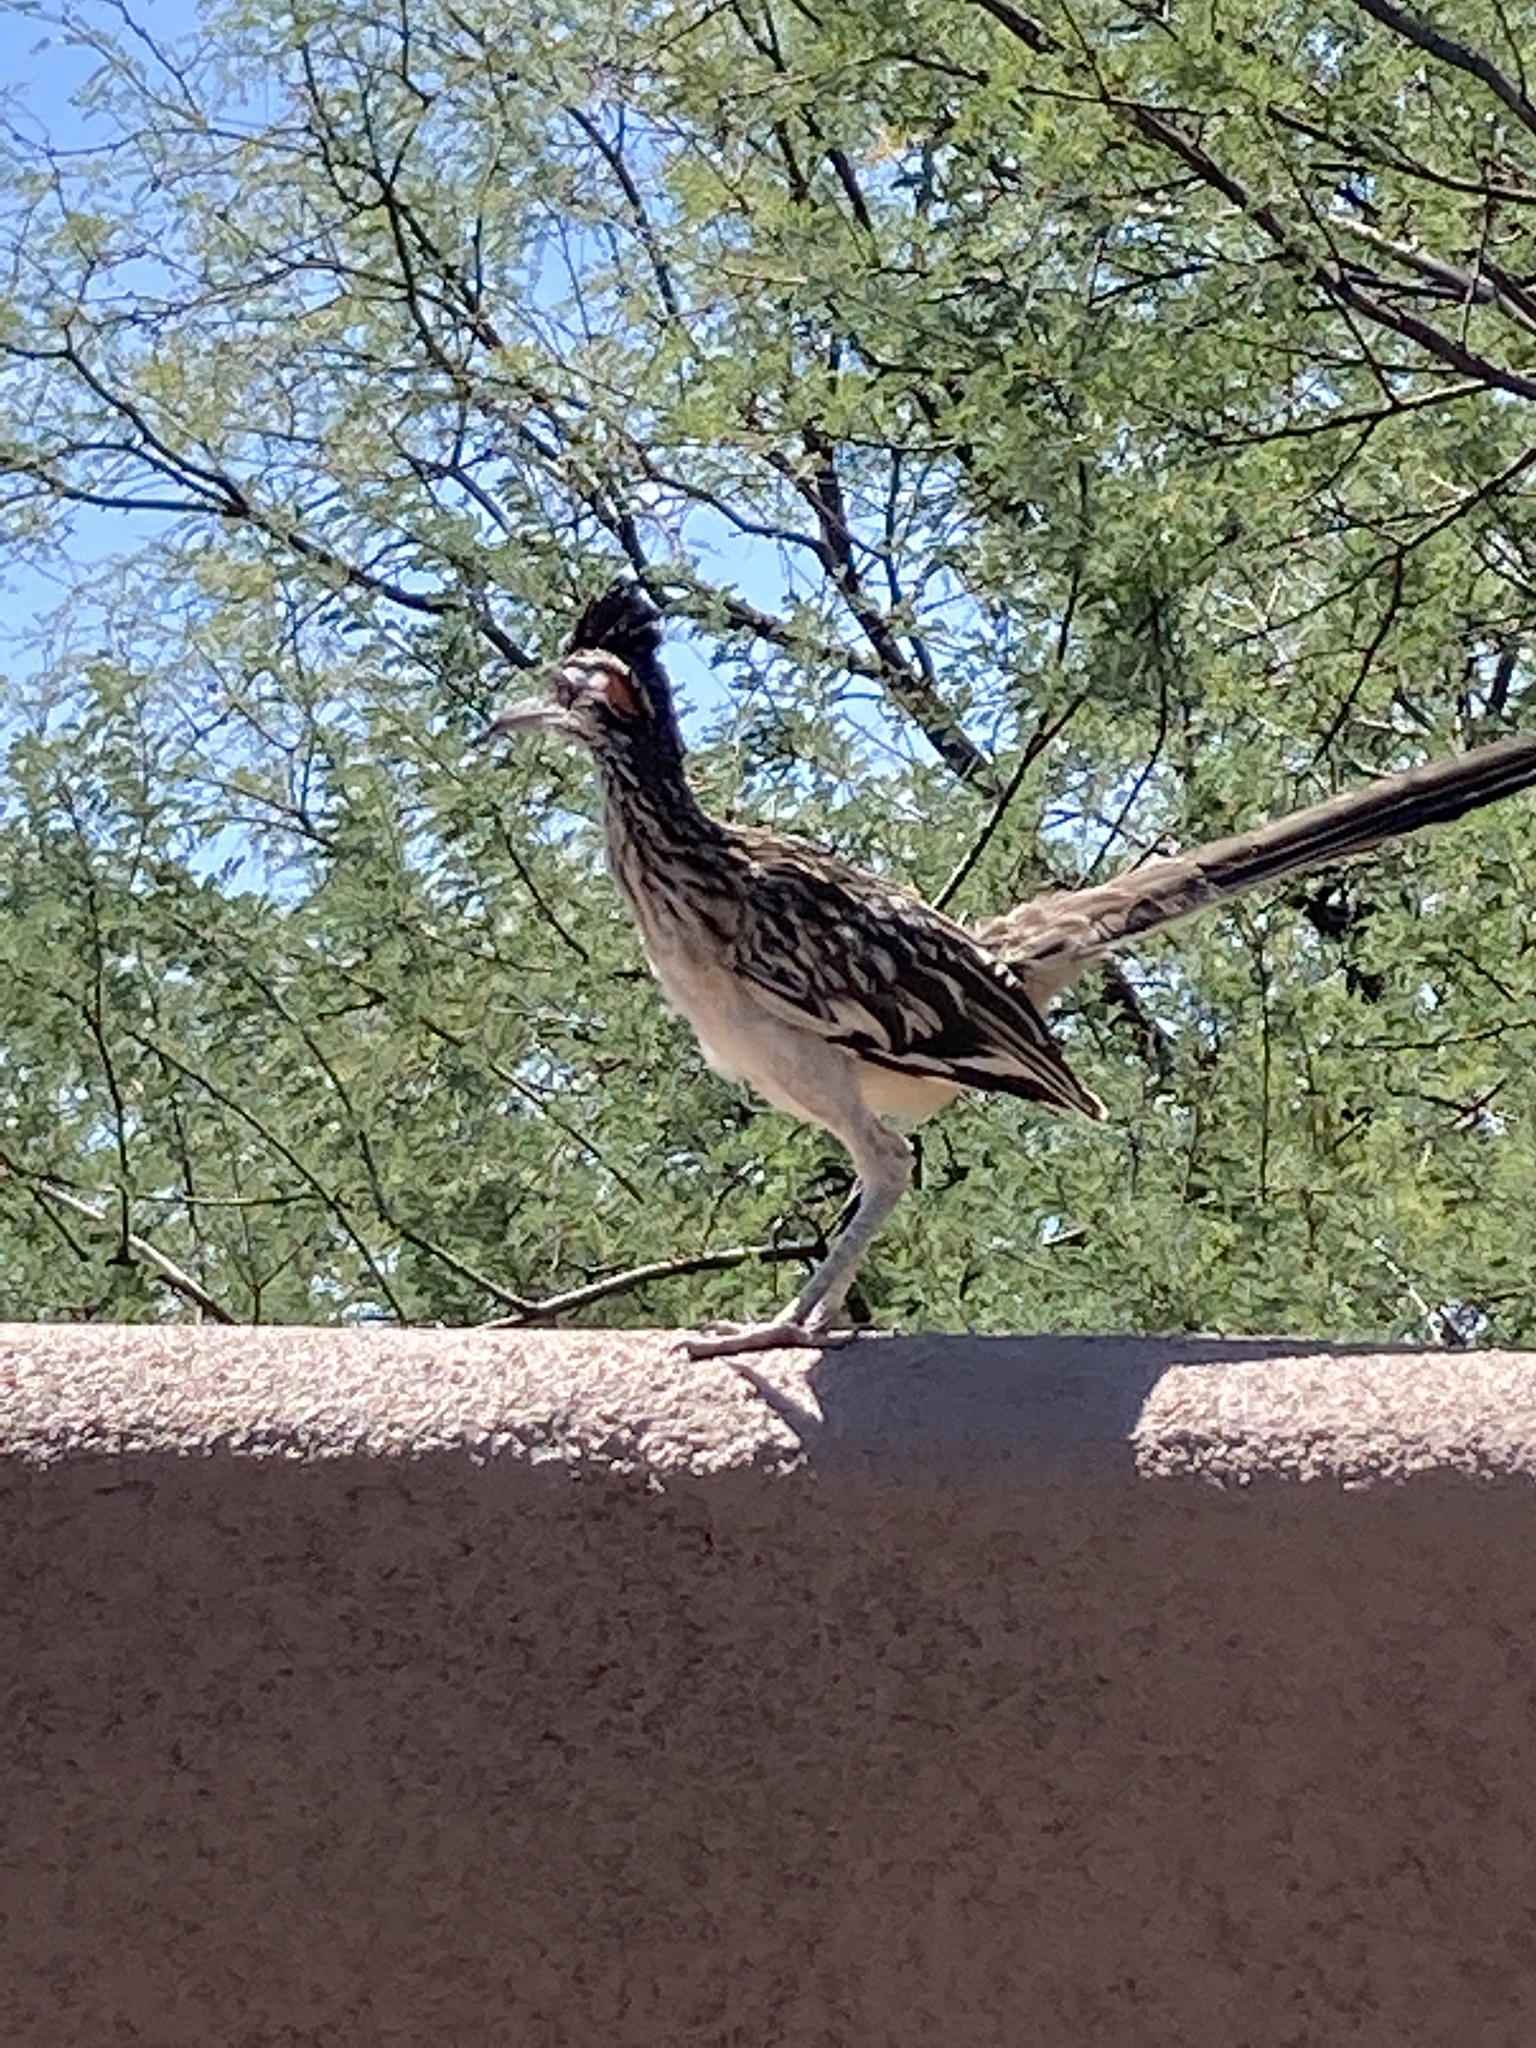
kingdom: Animalia
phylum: Chordata
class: Aves
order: Cuculiformes
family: Cuculidae
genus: Geococcyx
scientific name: Geococcyx californianus
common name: Greater roadrunner
